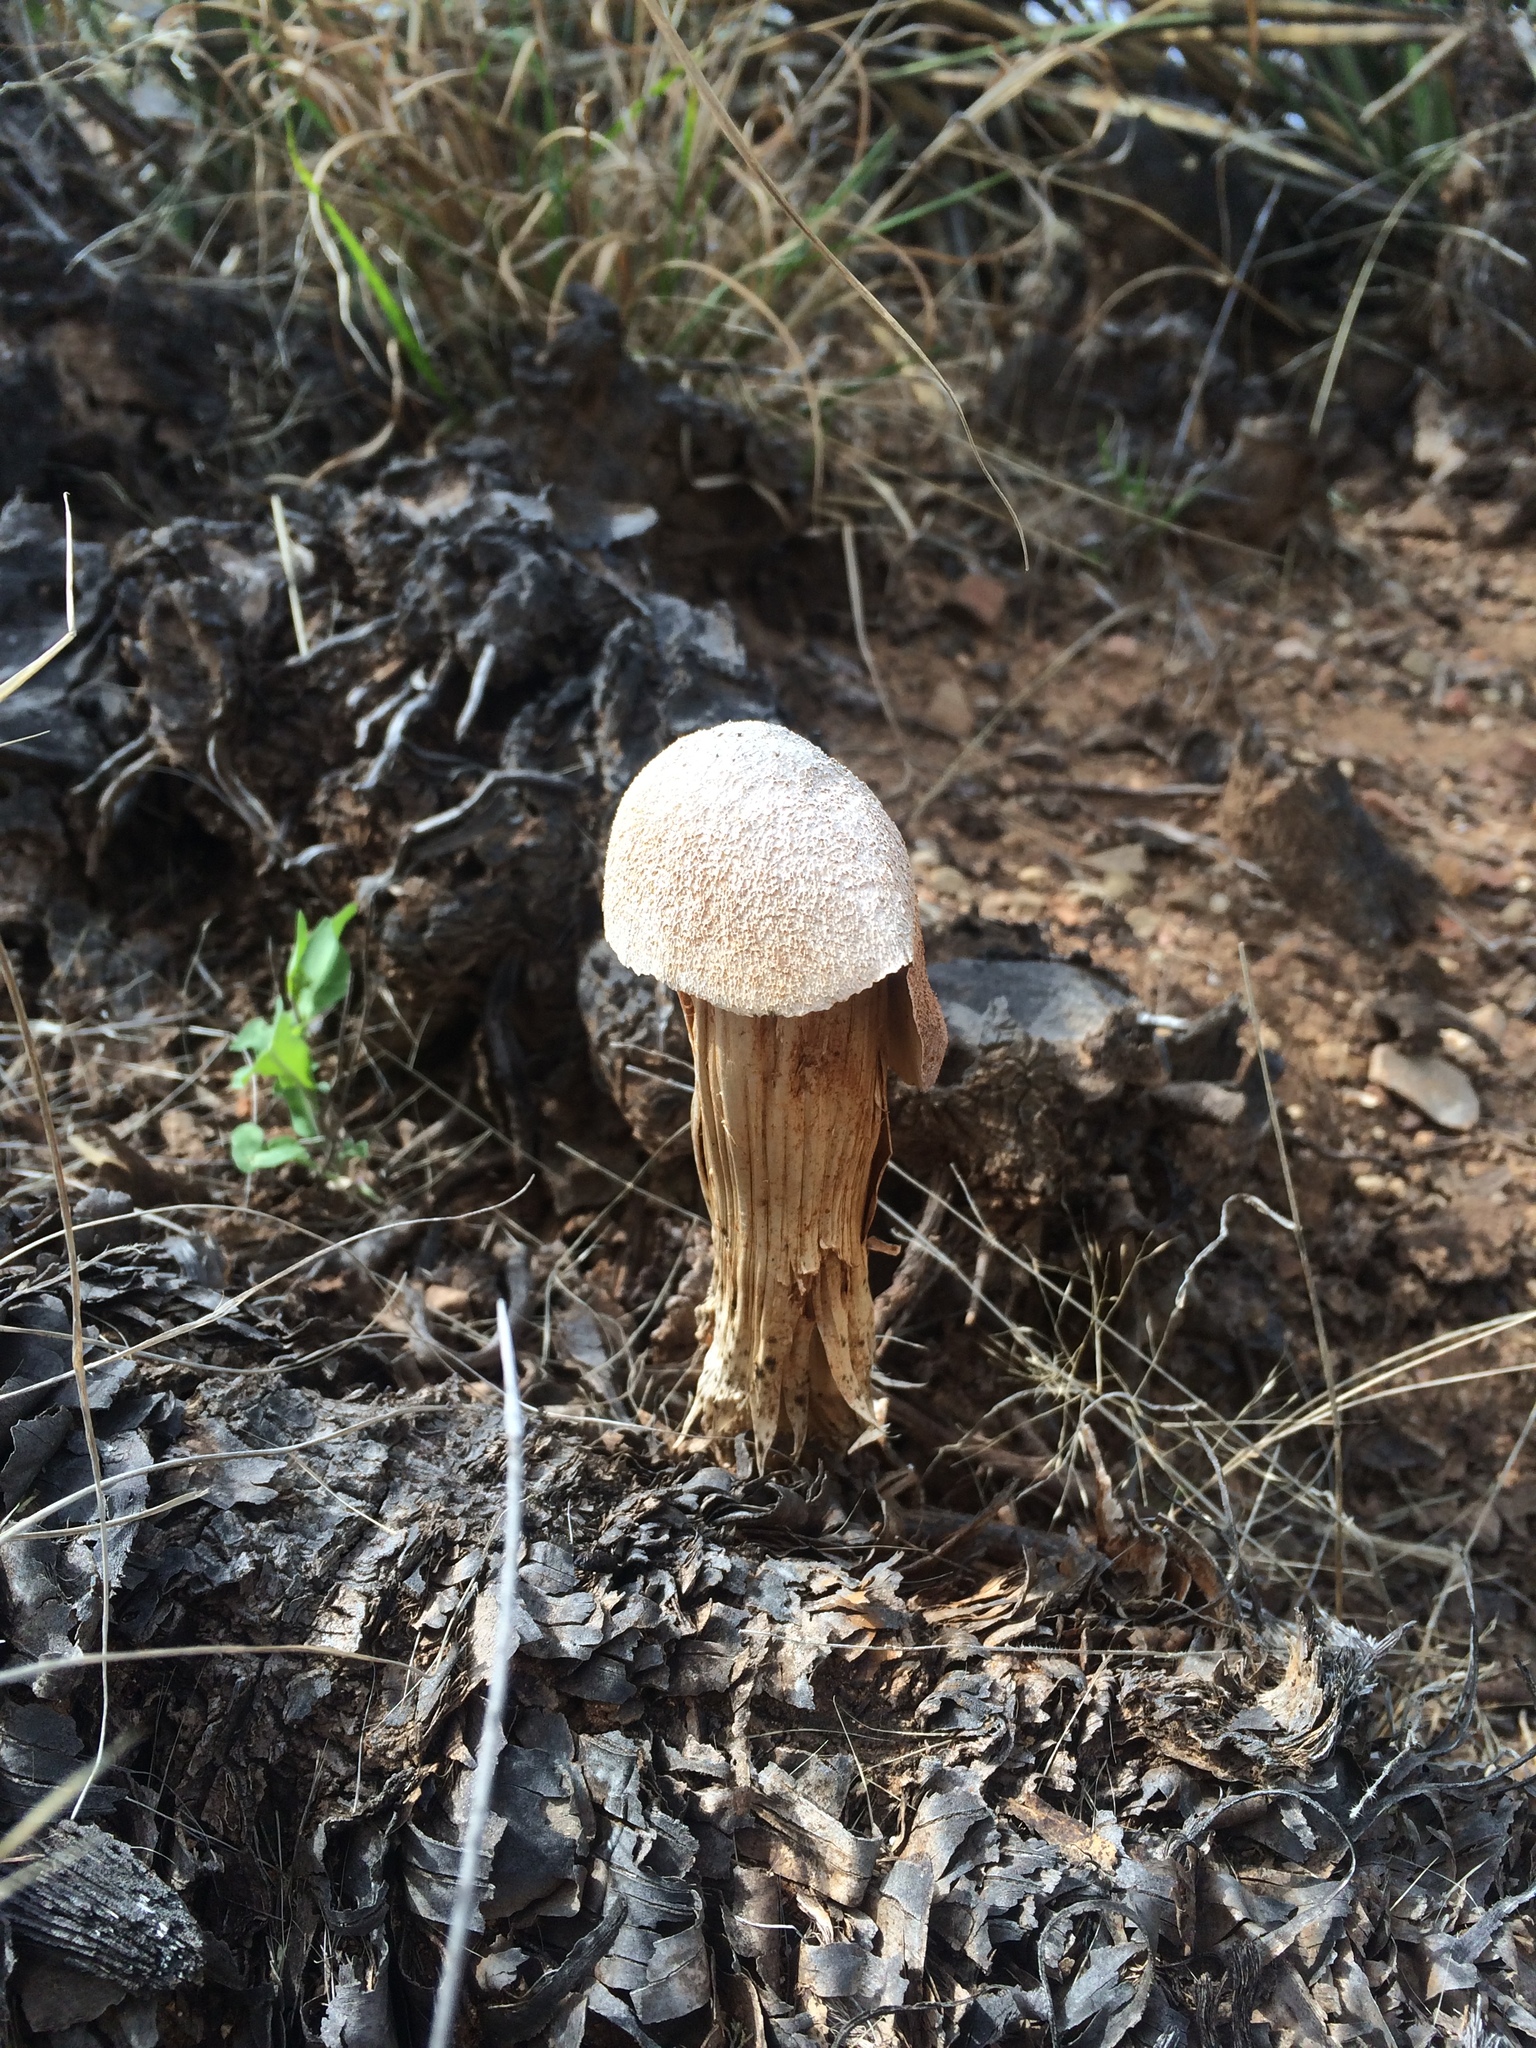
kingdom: Fungi
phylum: Basidiomycota
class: Agaricomycetes
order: Agaricales
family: Agaricaceae
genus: Battarrea
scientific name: Battarrea phalloides
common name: Sandy stiltball
